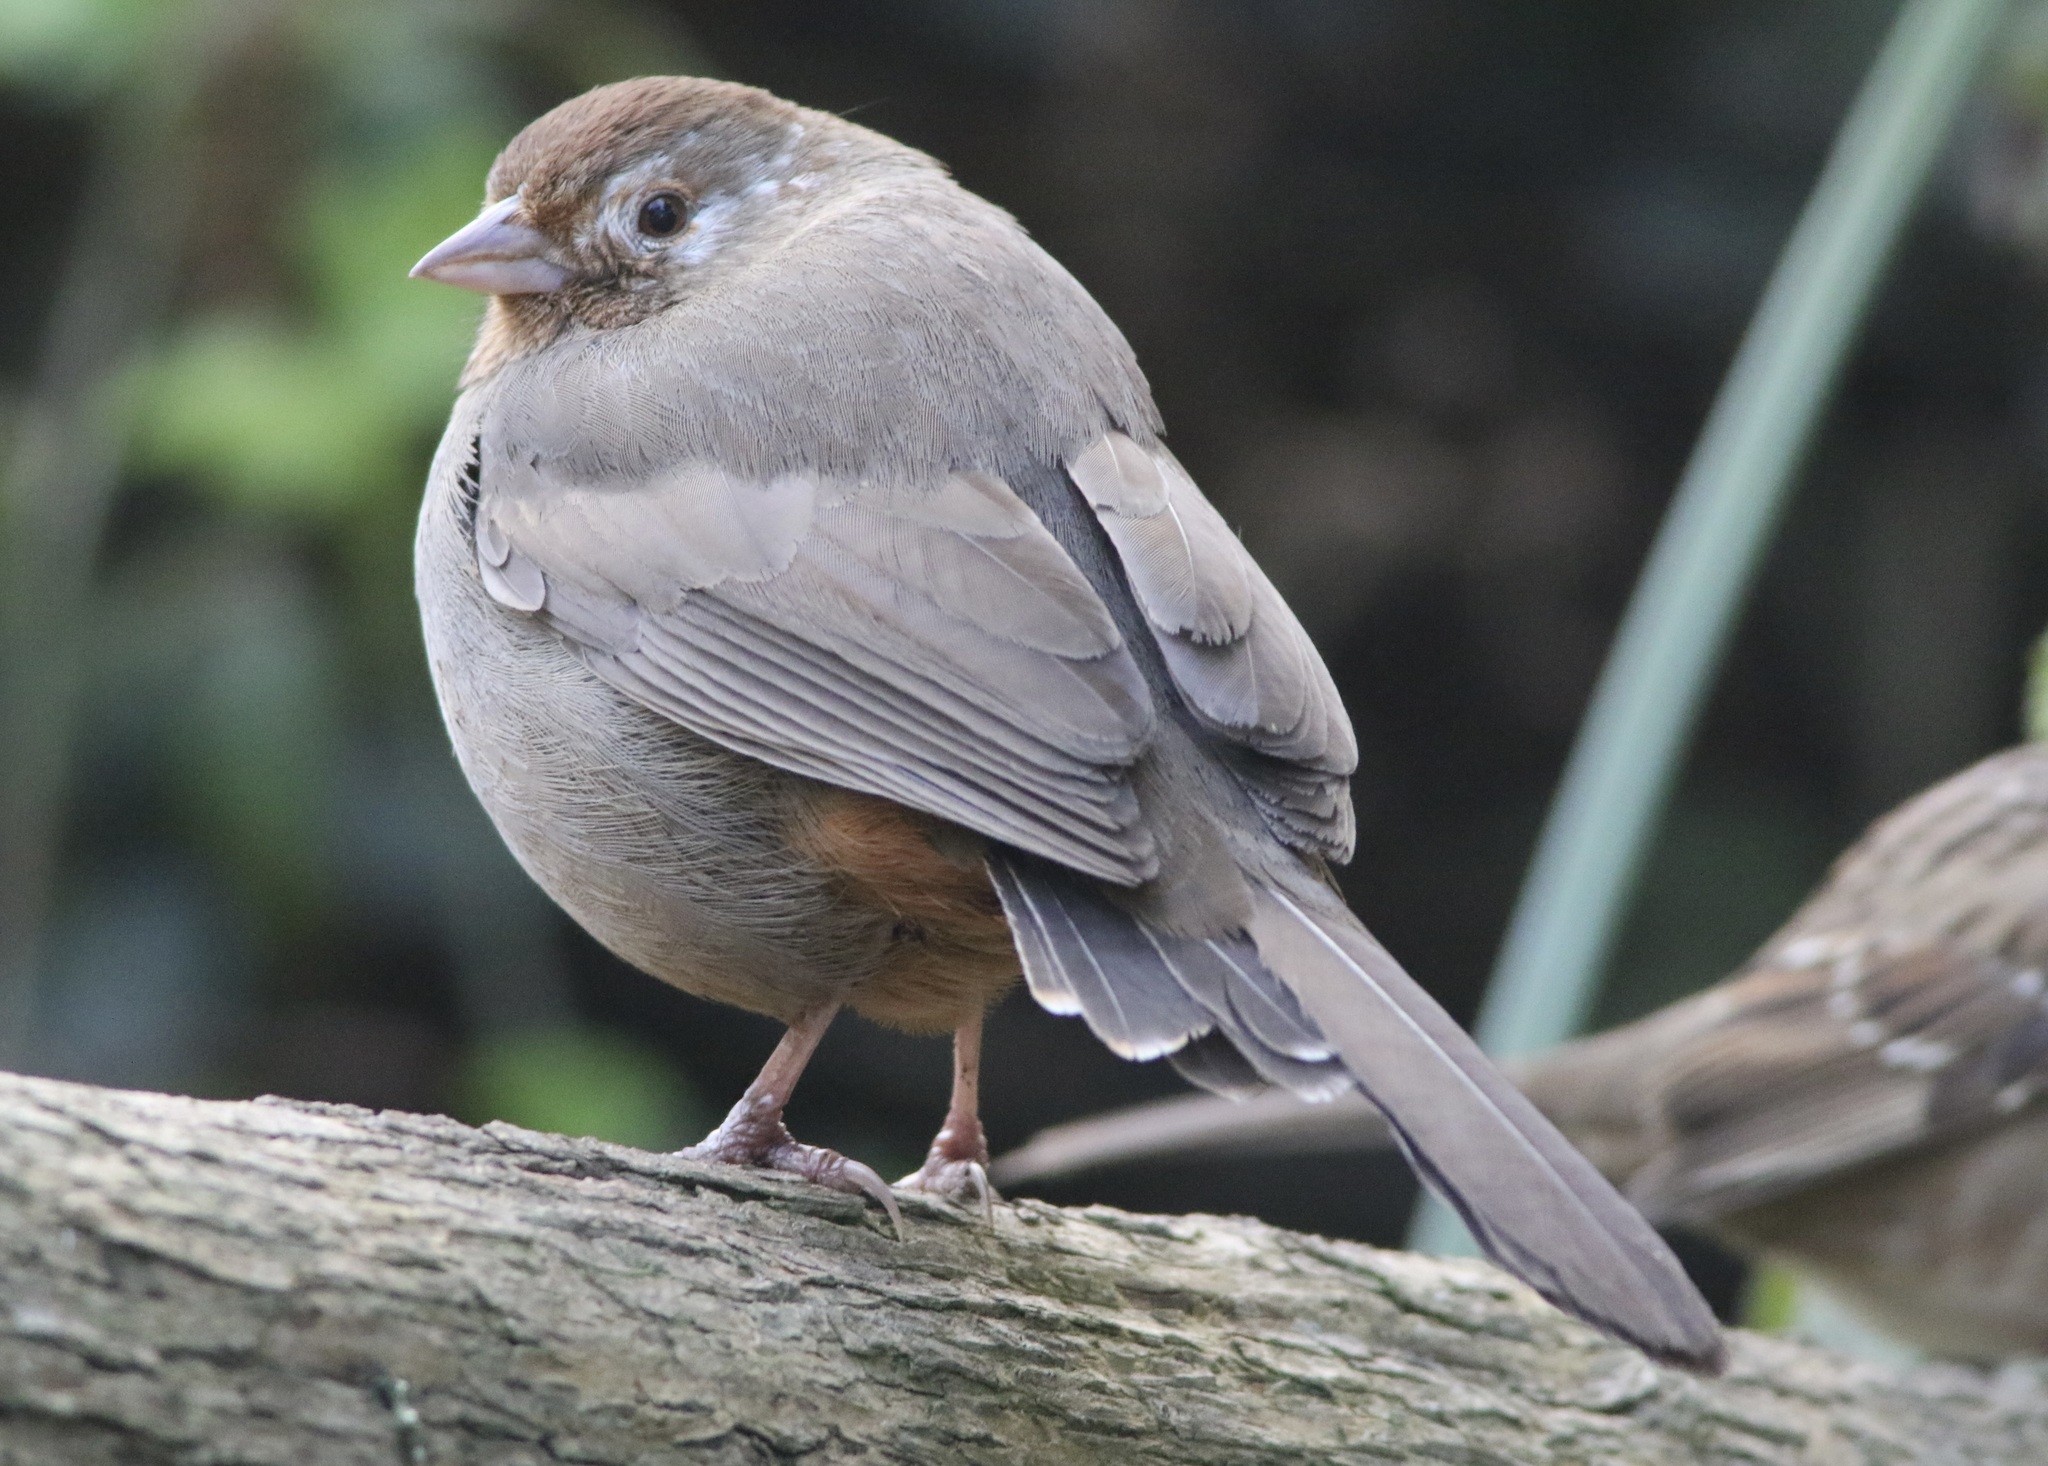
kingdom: Animalia
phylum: Chordata
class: Aves
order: Passeriformes
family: Passerellidae
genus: Melozone
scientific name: Melozone crissalis
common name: California towhee
